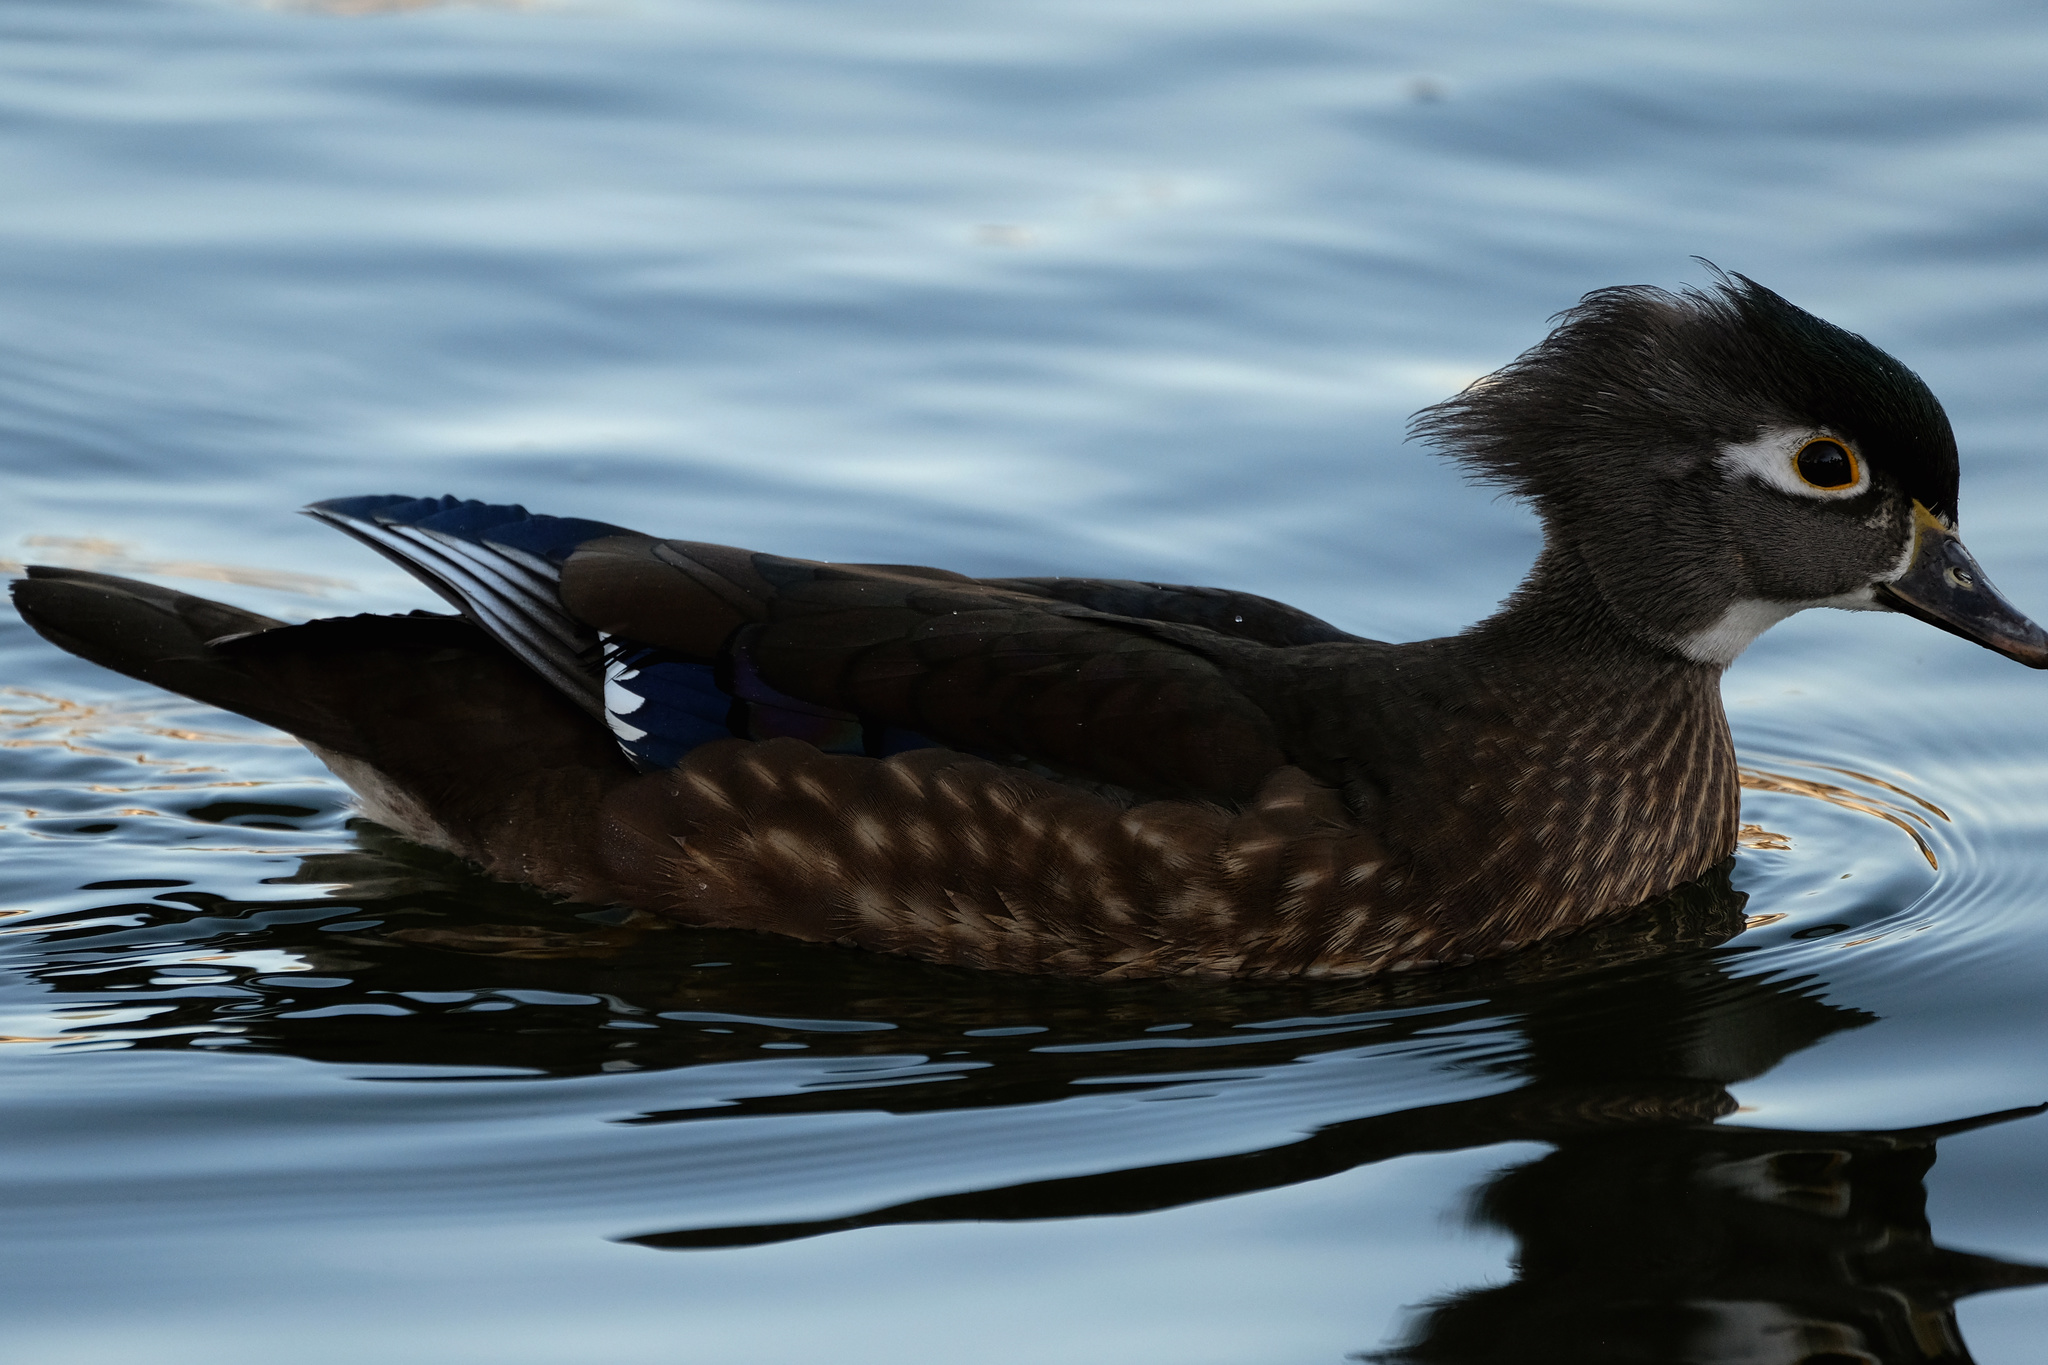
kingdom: Animalia
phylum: Chordata
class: Aves
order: Anseriformes
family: Anatidae
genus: Aix
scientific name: Aix sponsa
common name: Wood duck
